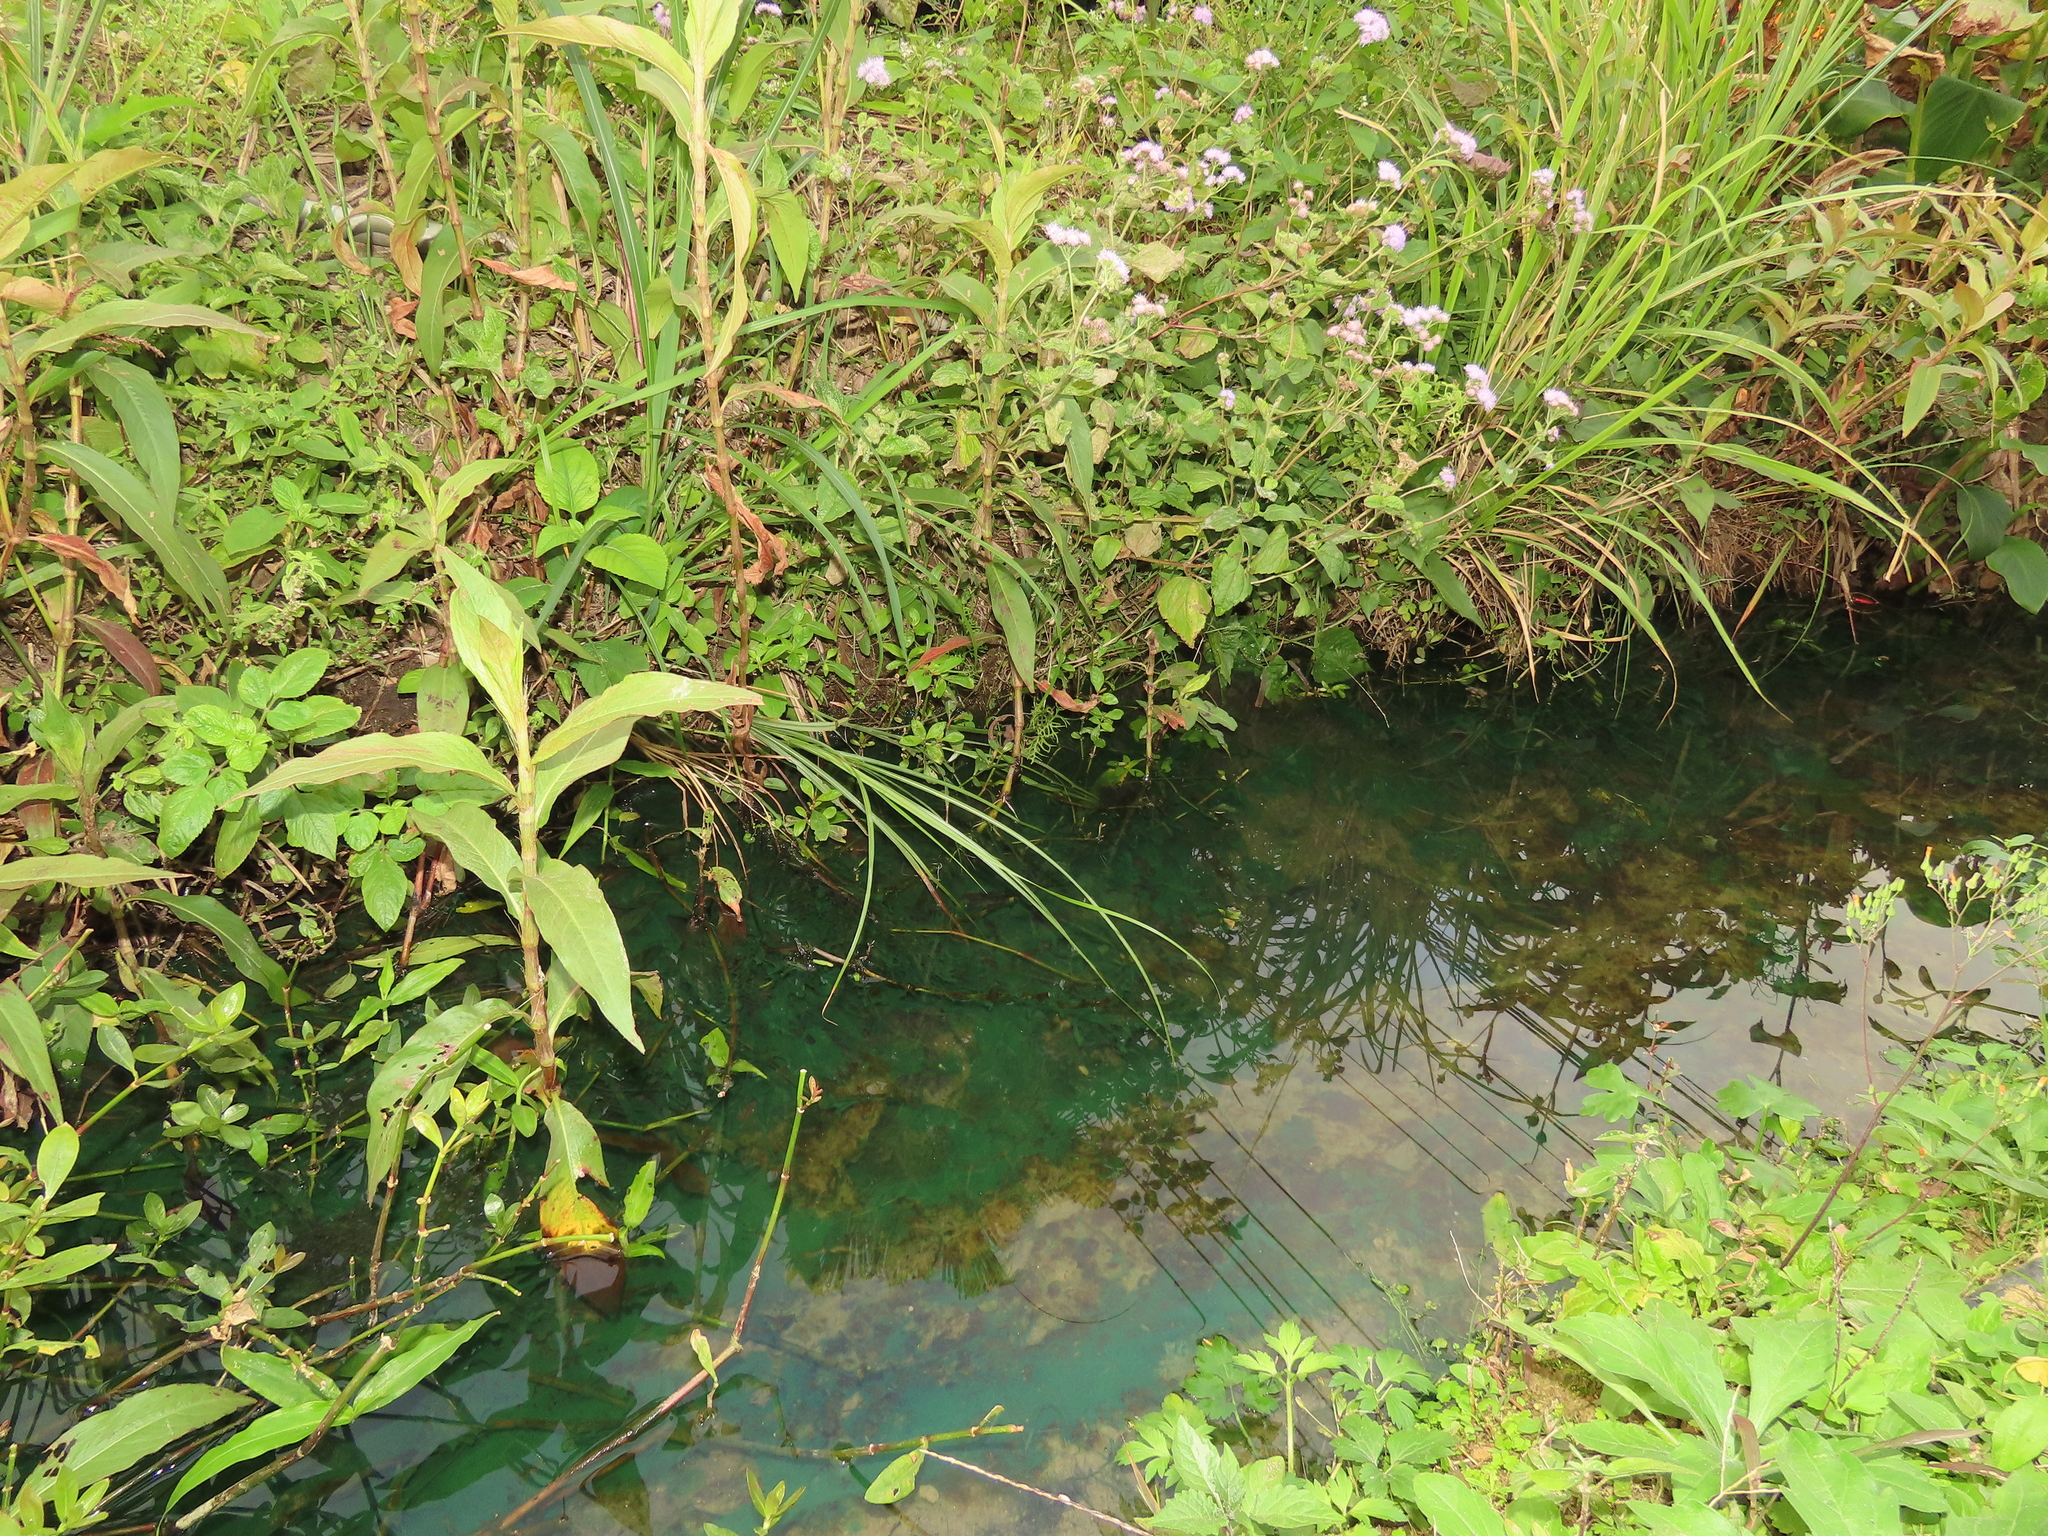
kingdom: Plantae
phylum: Tracheophyta
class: Polypodiopsida
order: Polypodiales
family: Pteridaceae
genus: Ceratopteris
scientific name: Ceratopteris thalictroides
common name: Water fern
